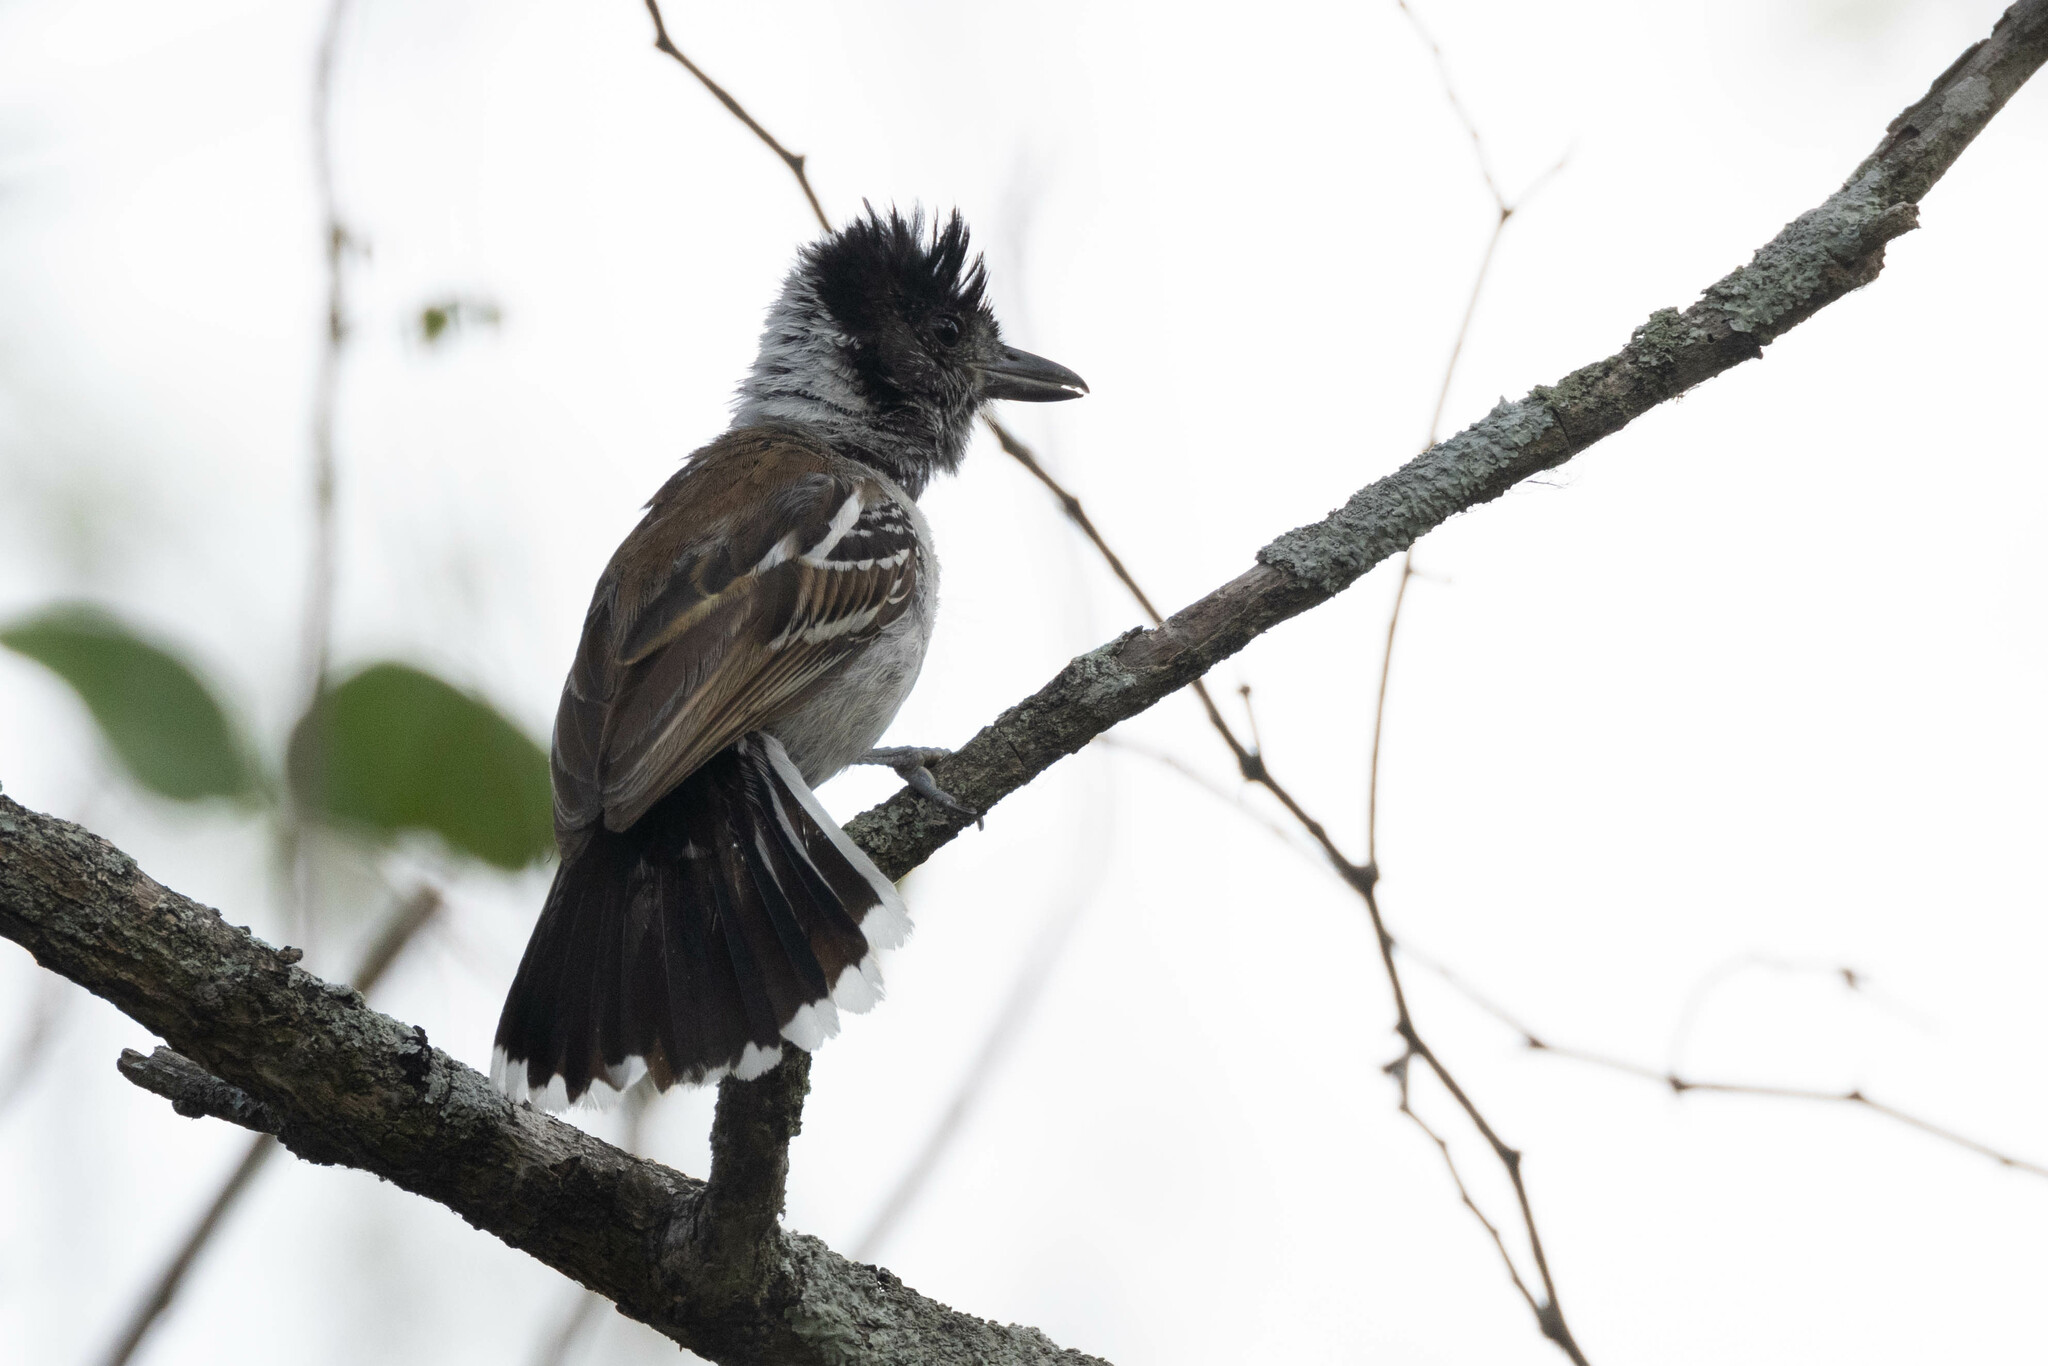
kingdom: Animalia
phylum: Chordata
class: Aves
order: Passeriformes
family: Thamnophilidae
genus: Thamnophilus
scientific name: Thamnophilus bernardi
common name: Collared antshrike
